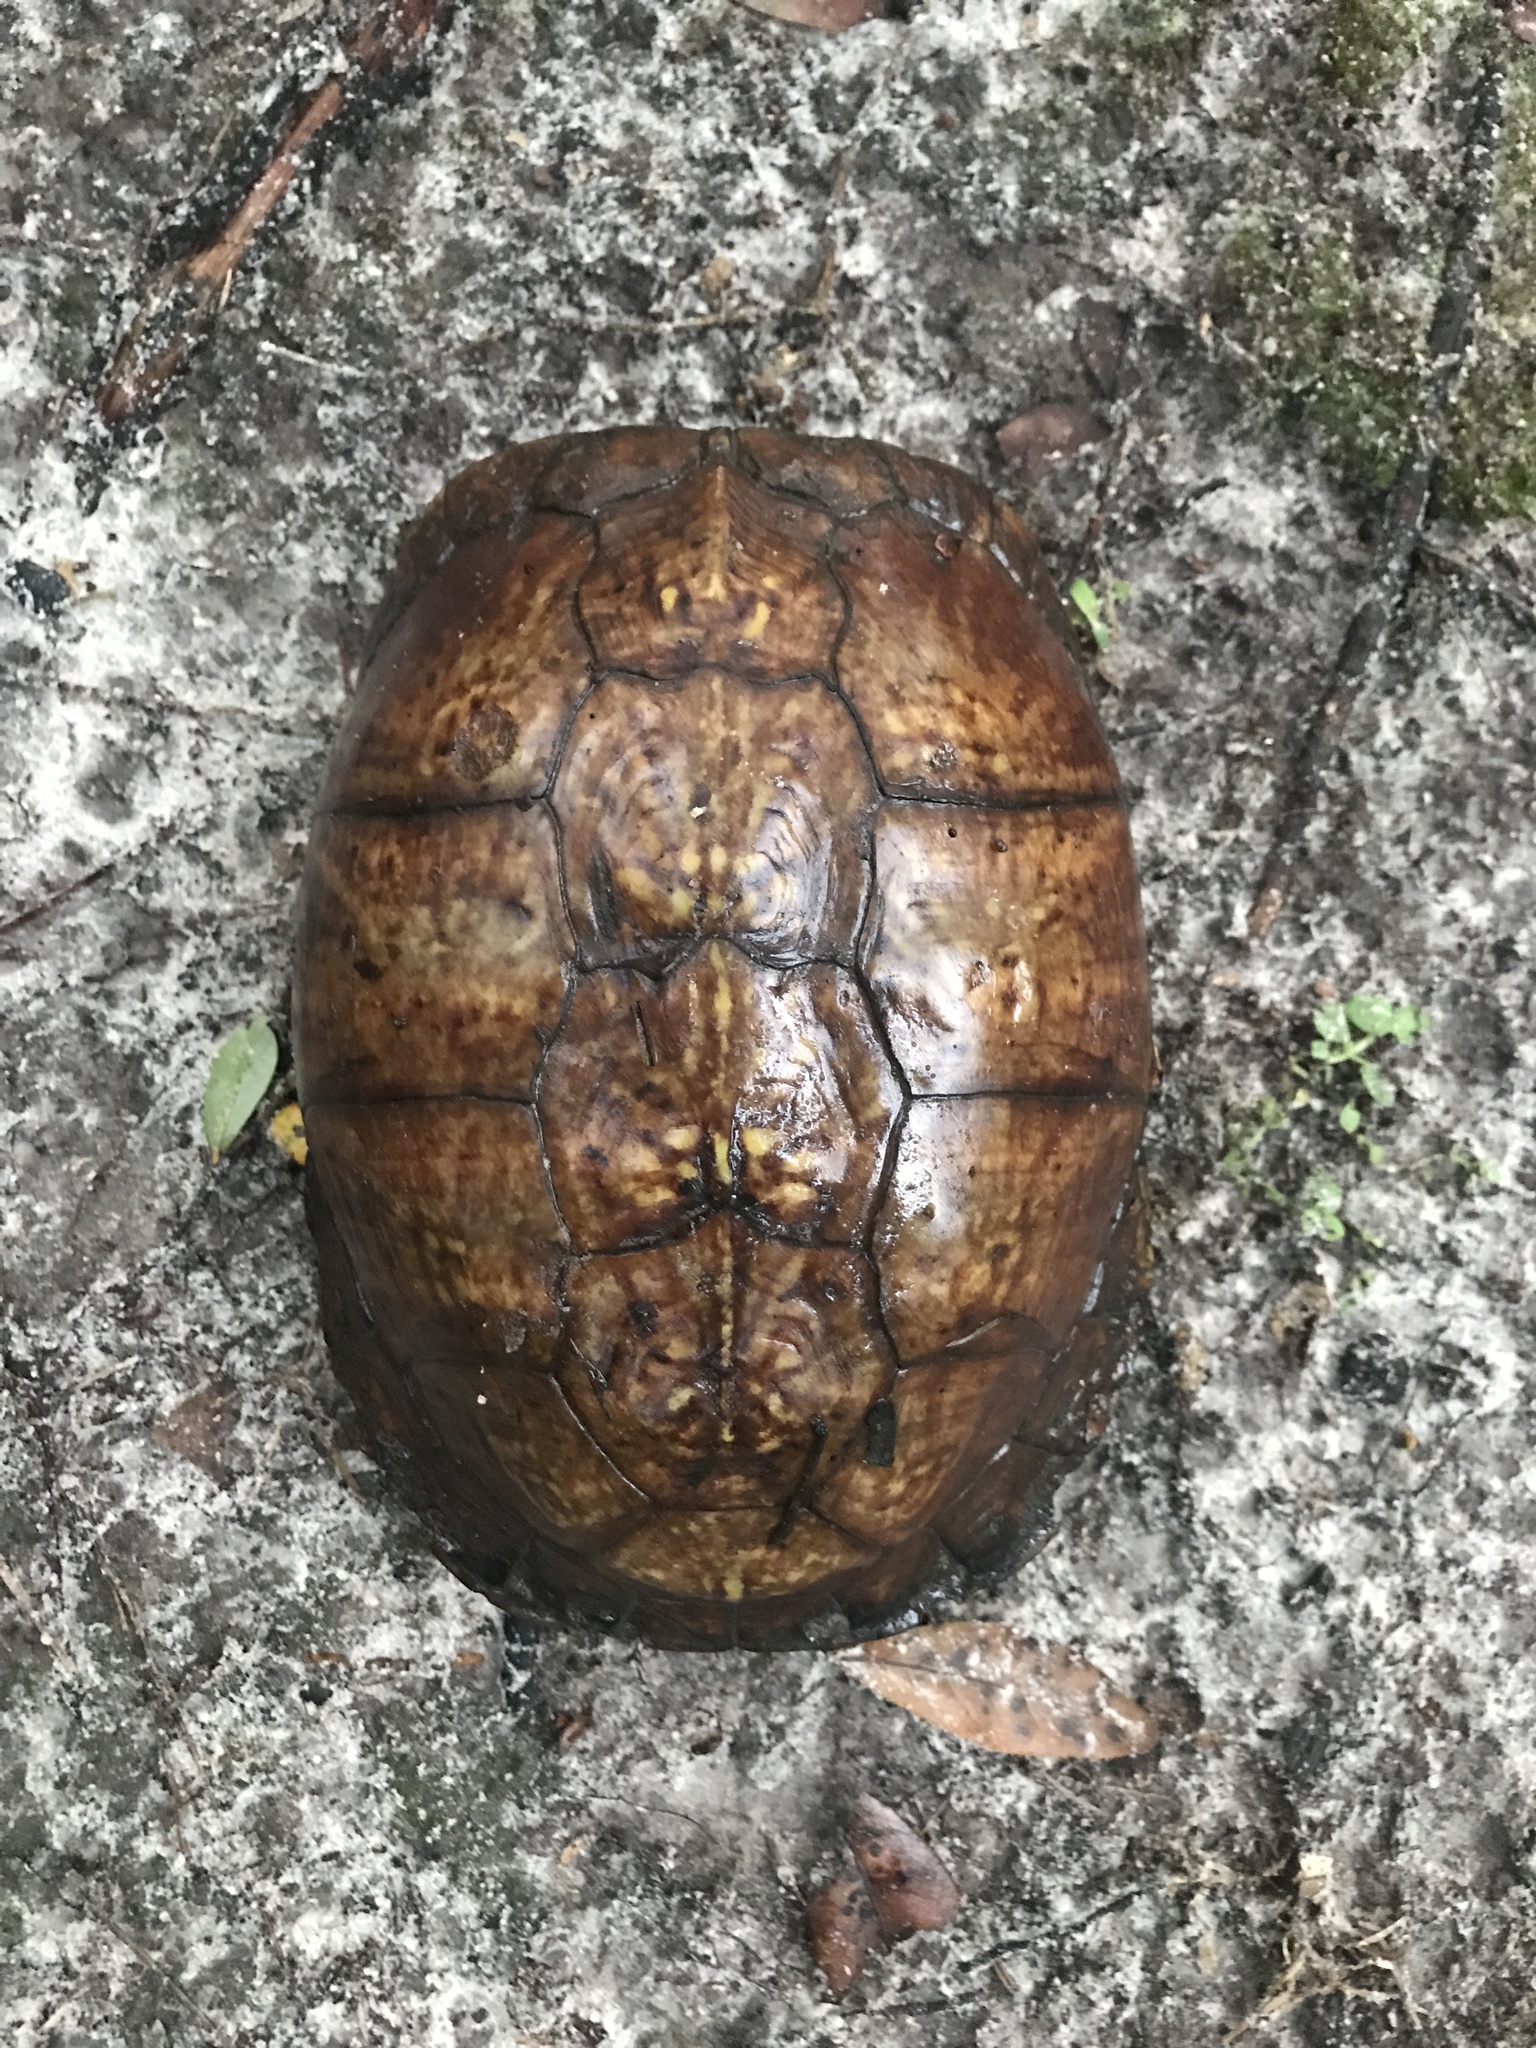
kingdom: Animalia
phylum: Chordata
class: Testudines
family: Emydidae
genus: Terrapene
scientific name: Terrapene carolina
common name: Common box turtle
